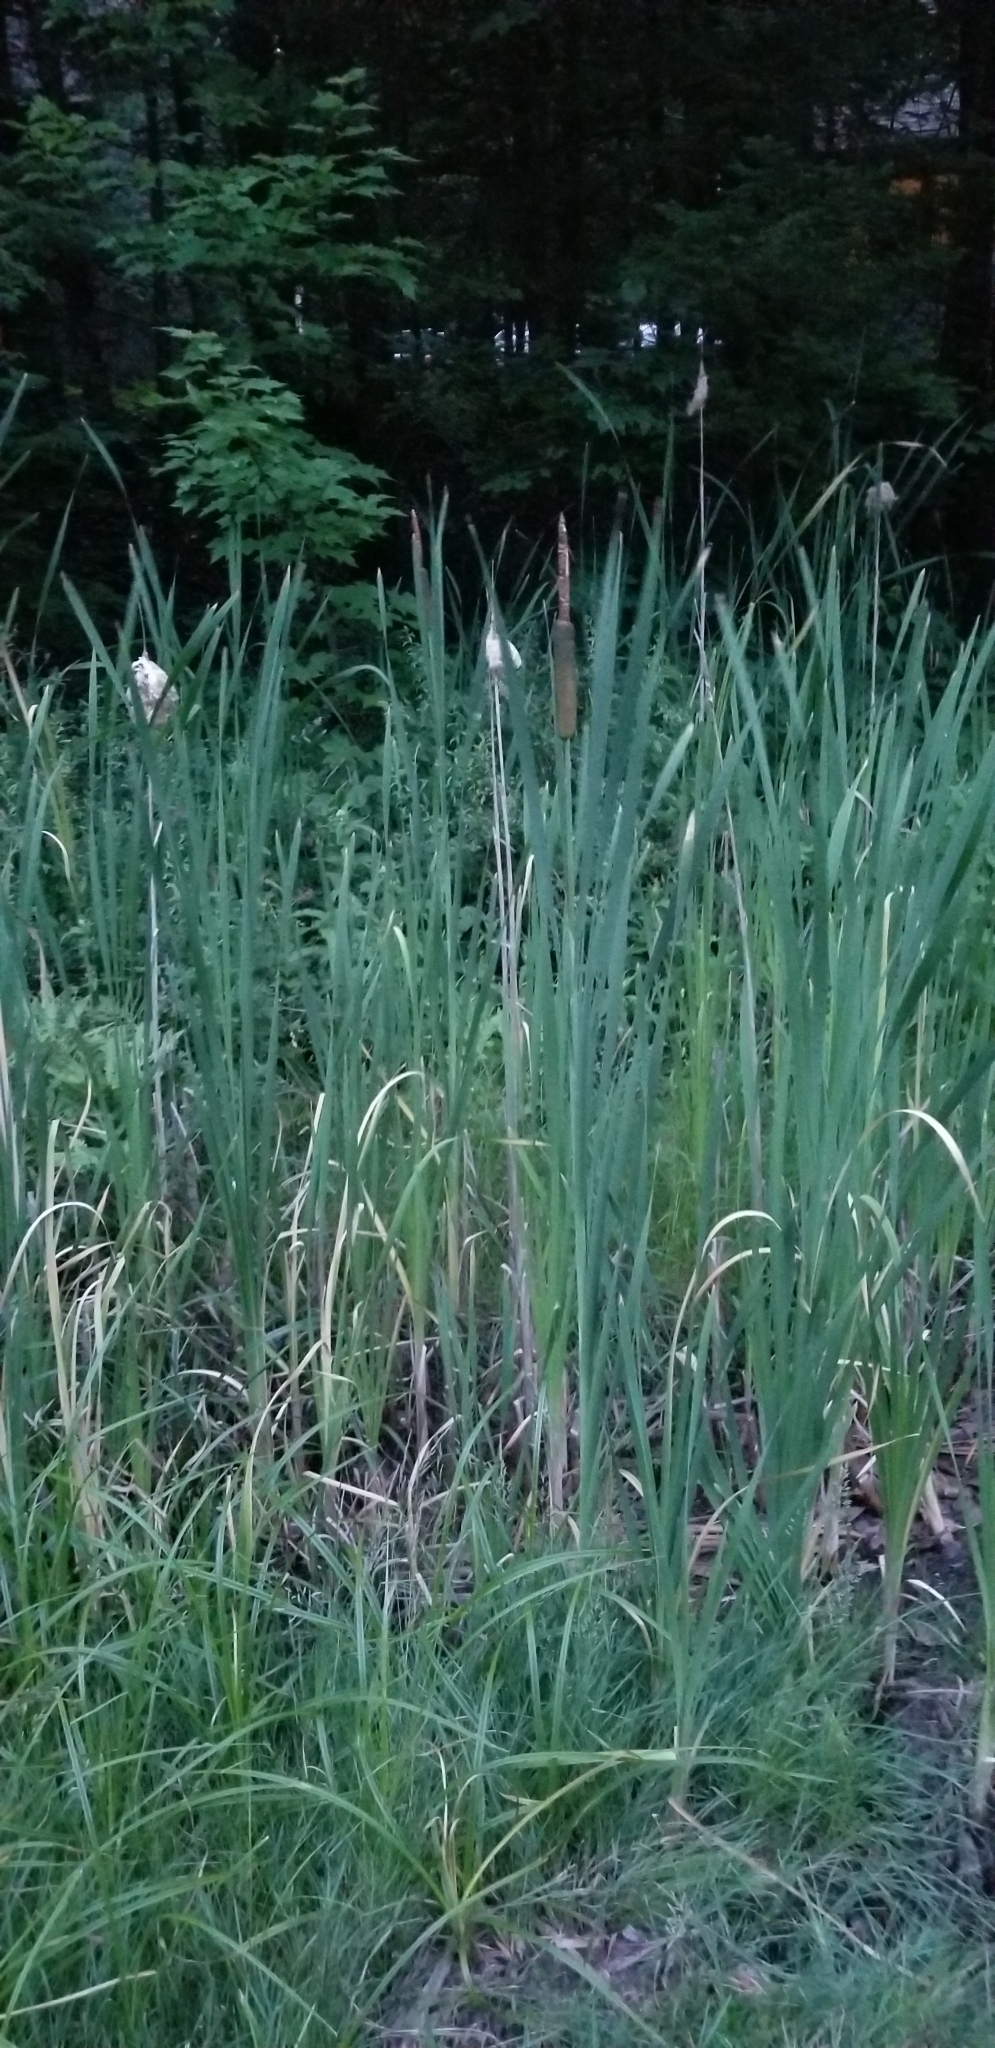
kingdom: Plantae
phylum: Tracheophyta
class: Liliopsida
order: Poales
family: Typhaceae
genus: Typha
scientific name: Typha latifolia
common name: Broadleaf cattail
